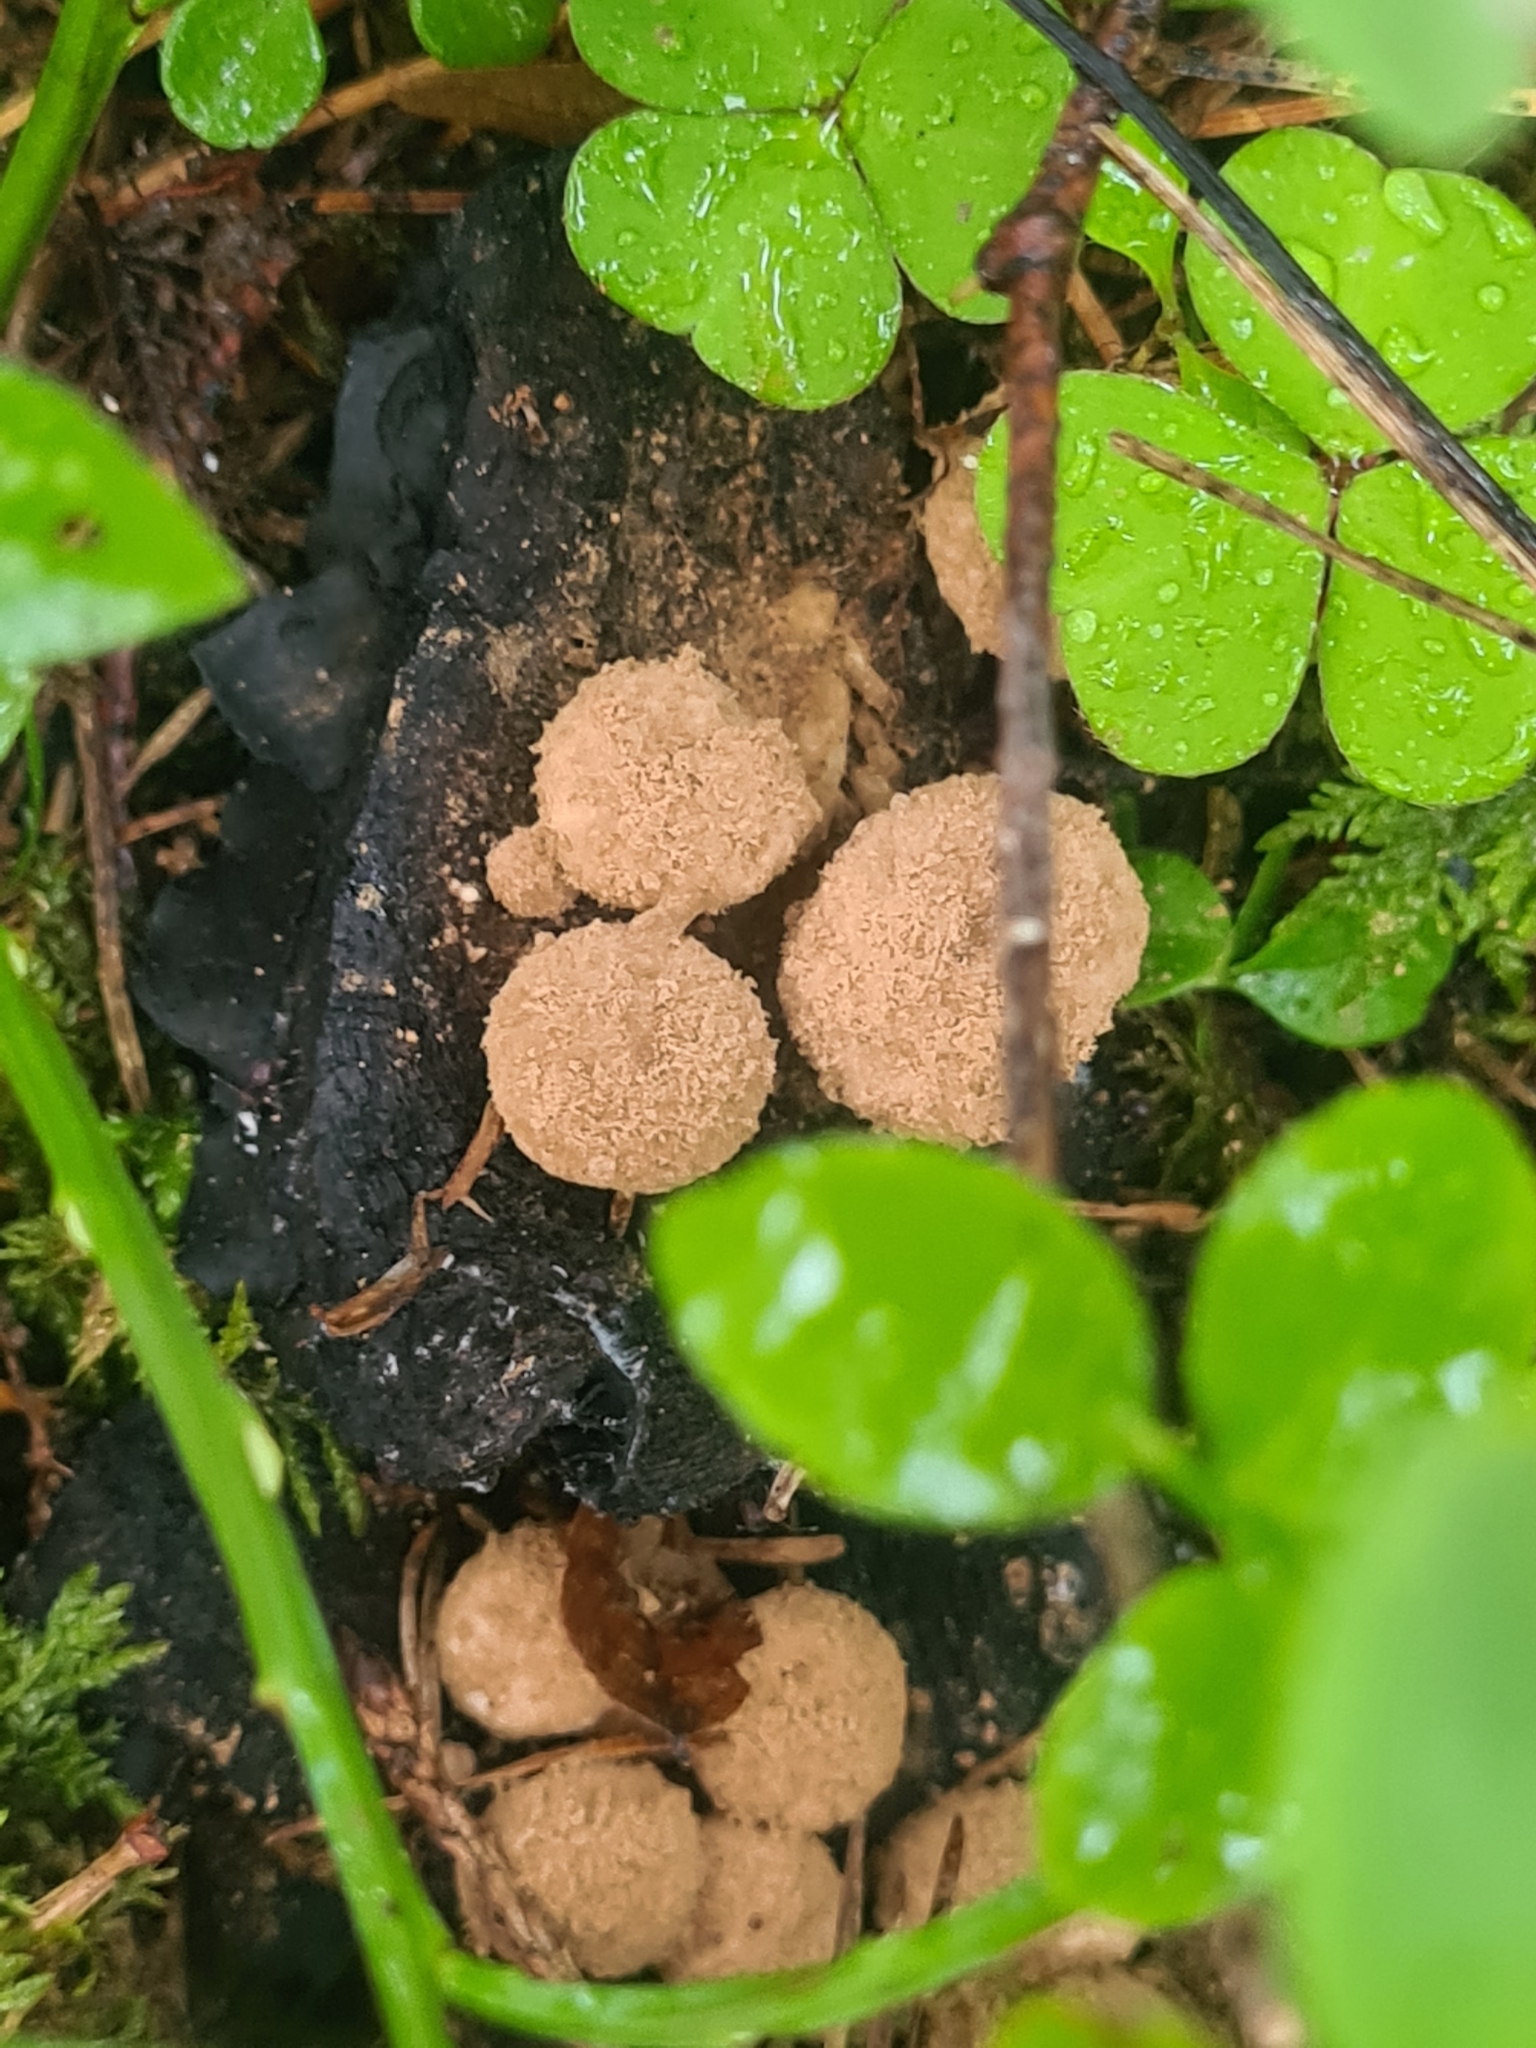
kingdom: Fungi
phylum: Basidiomycota
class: Agaricomycetes
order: Agaricales
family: Lyophyllaceae
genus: Asterophora
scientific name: Asterophora lycoperdoides
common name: Pick-a-back toadstool
